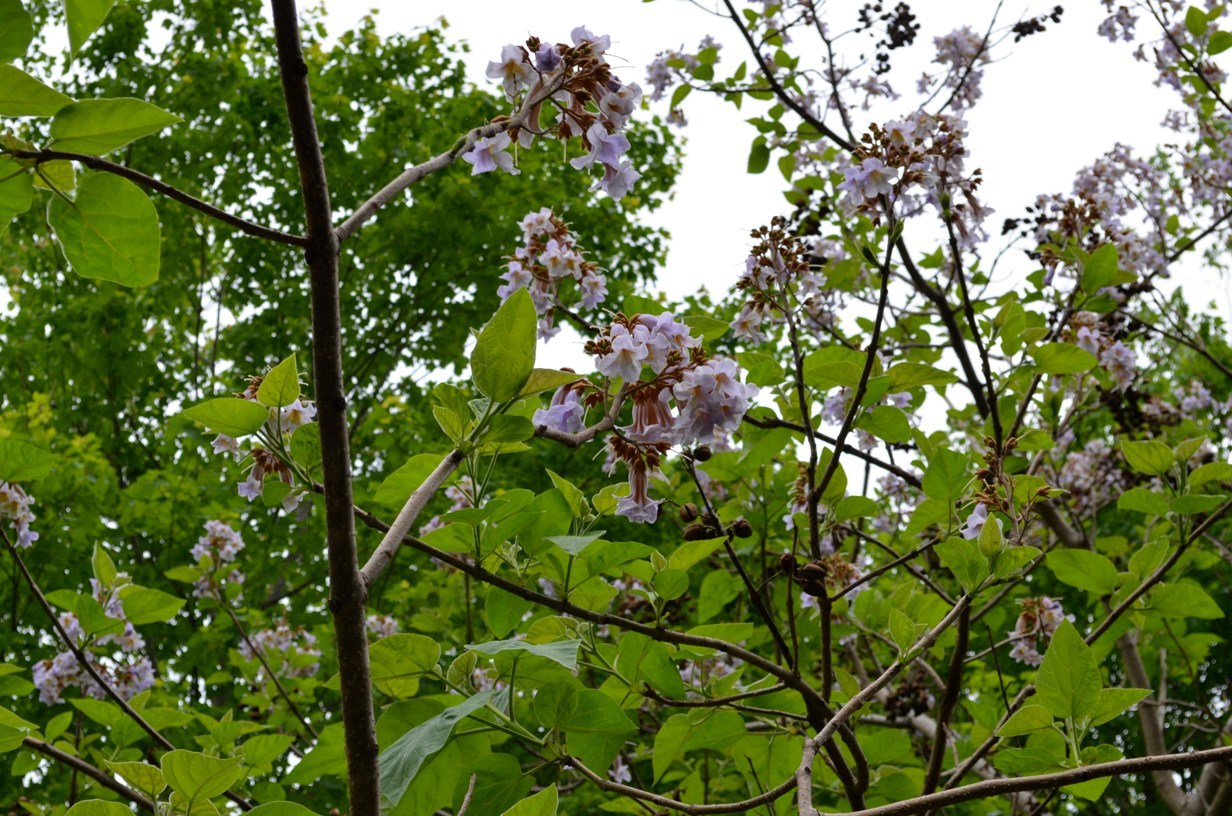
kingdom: Plantae
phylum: Tracheophyta
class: Magnoliopsida
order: Lamiales
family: Paulowniaceae
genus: Paulownia
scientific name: Paulownia tomentosa
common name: Foxglove-tree
